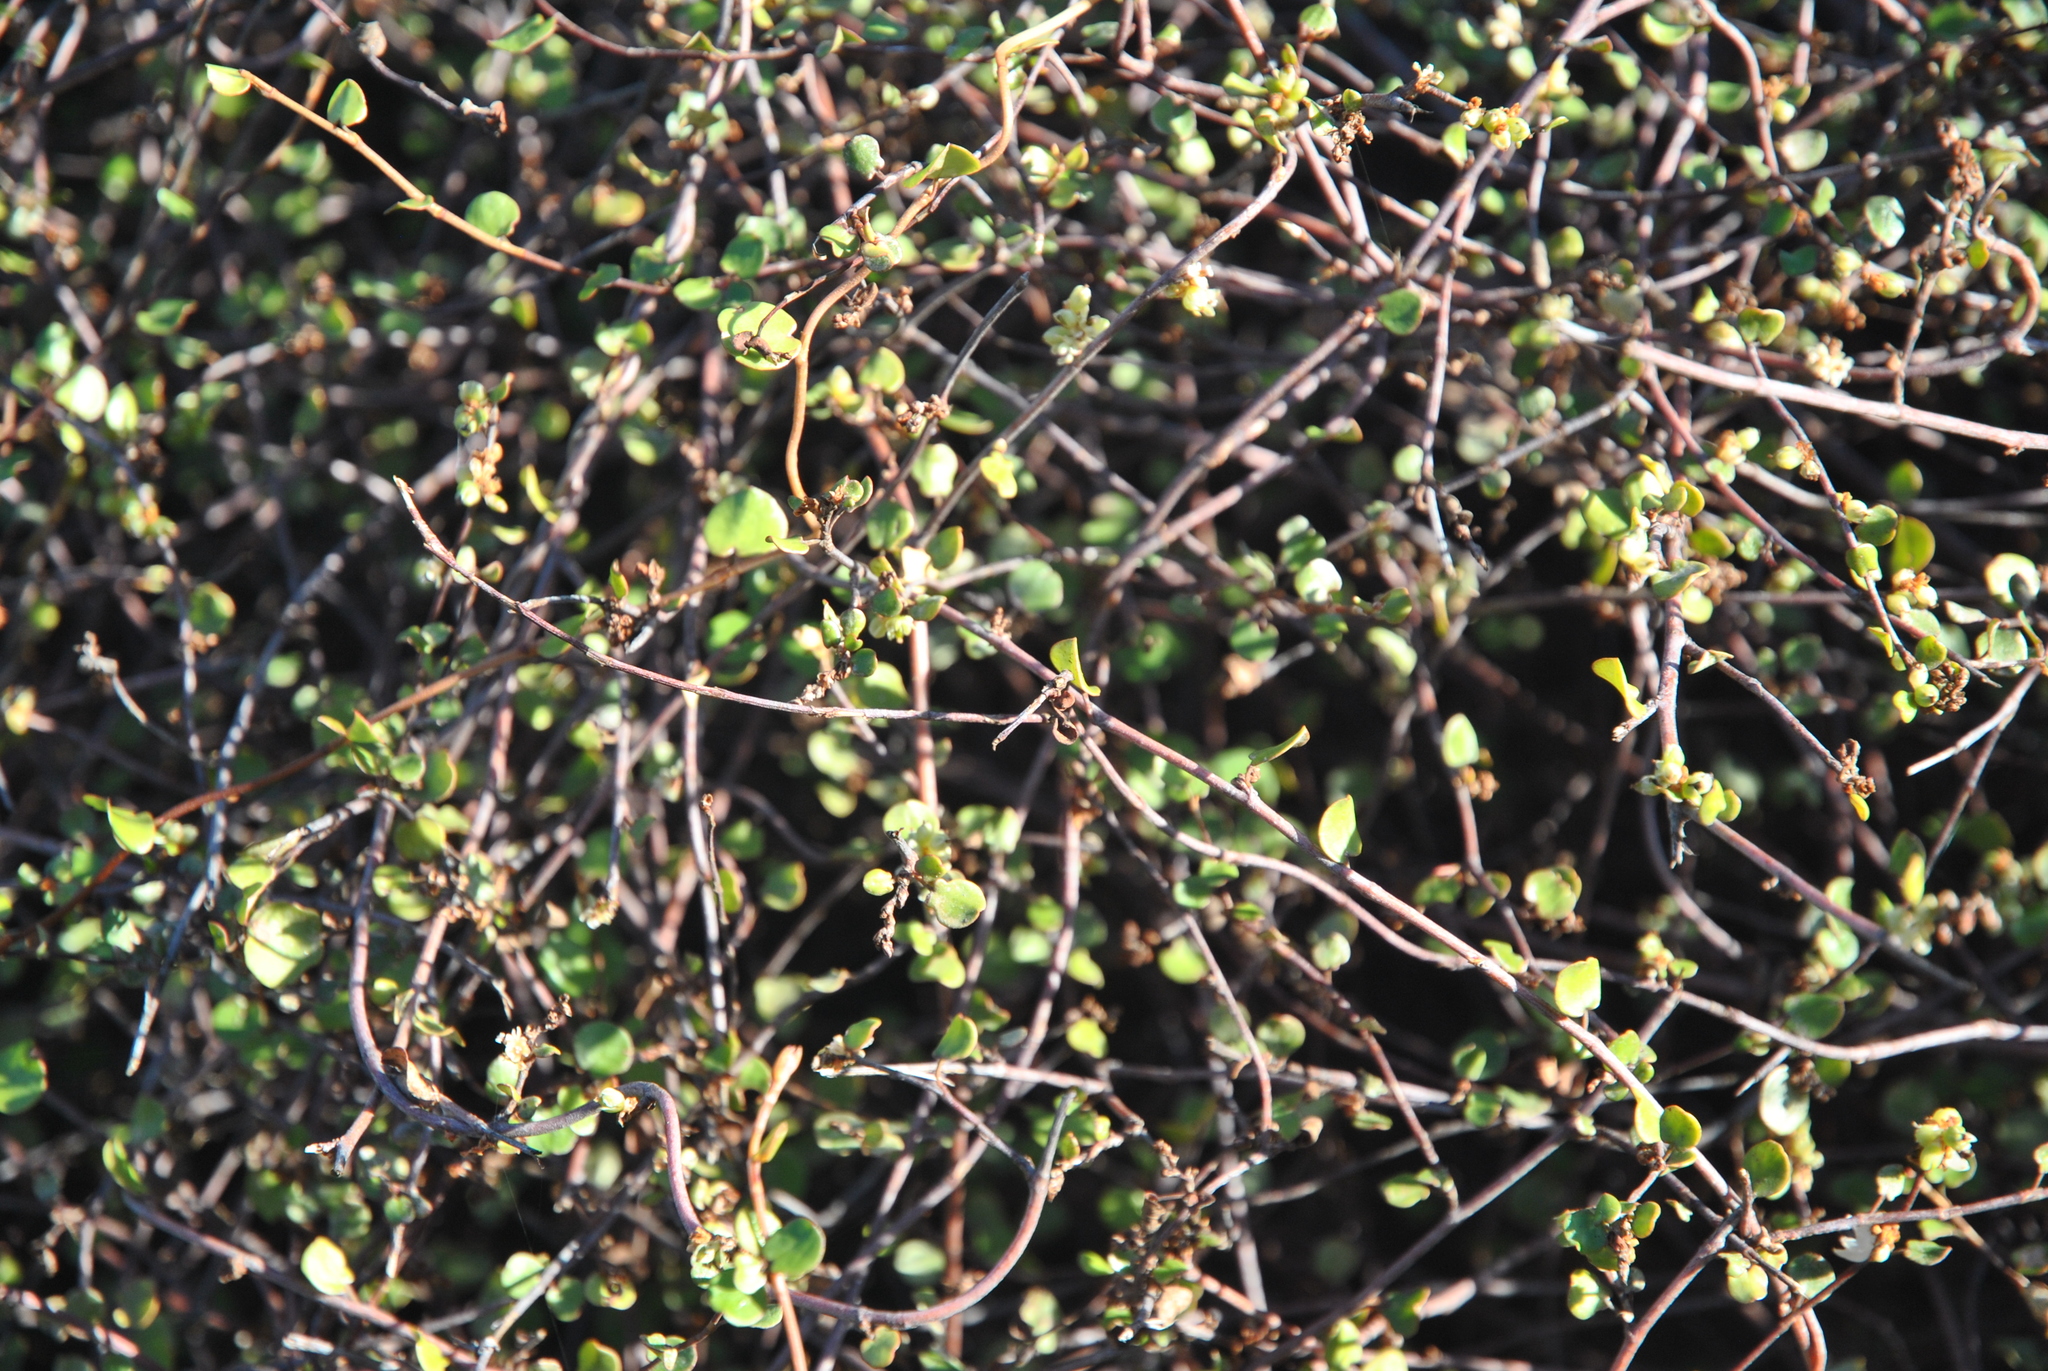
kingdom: Plantae
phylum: Tracheophyta
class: Magnoliopsida
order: Caryophyllales
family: Polygonaceae
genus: Muehlenbeckia
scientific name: Muehlenbeckia complexa
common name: Wireplant
